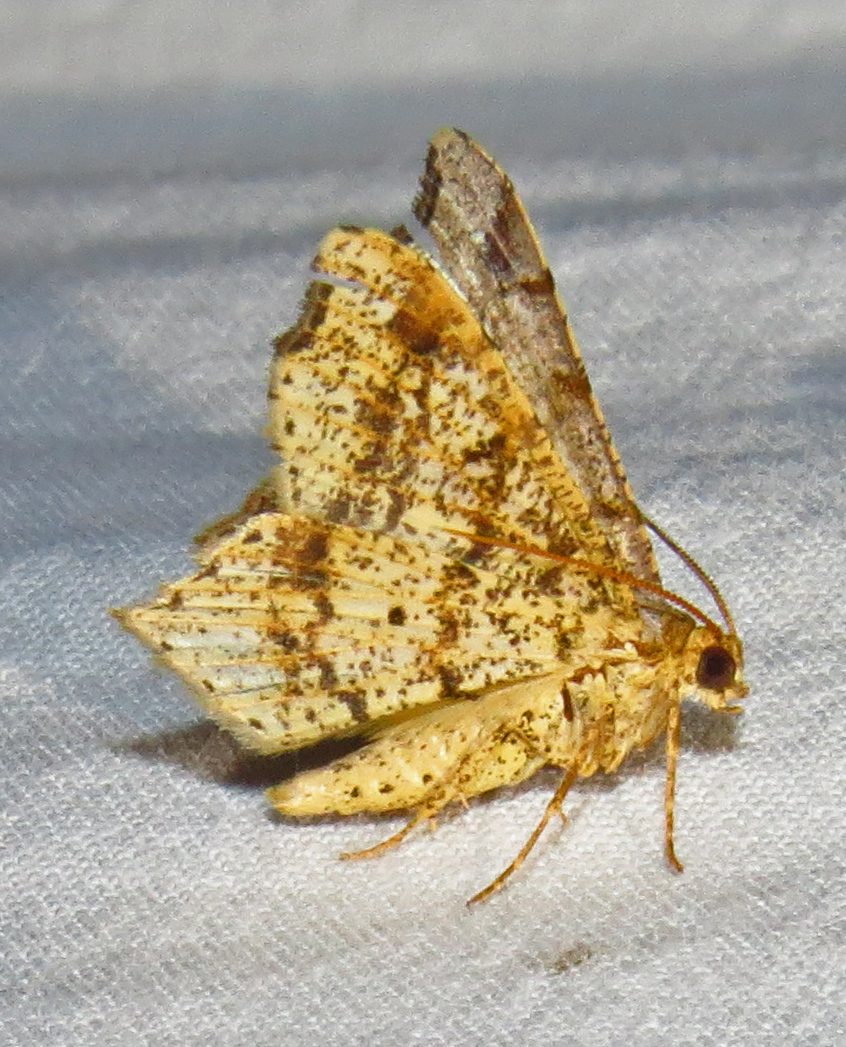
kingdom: Animalia
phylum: Arthropoda
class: Insecta
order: Lepidoptera
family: Geometridae
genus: Macaria
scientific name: Macaria promiscuata
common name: Promiscuous angle
